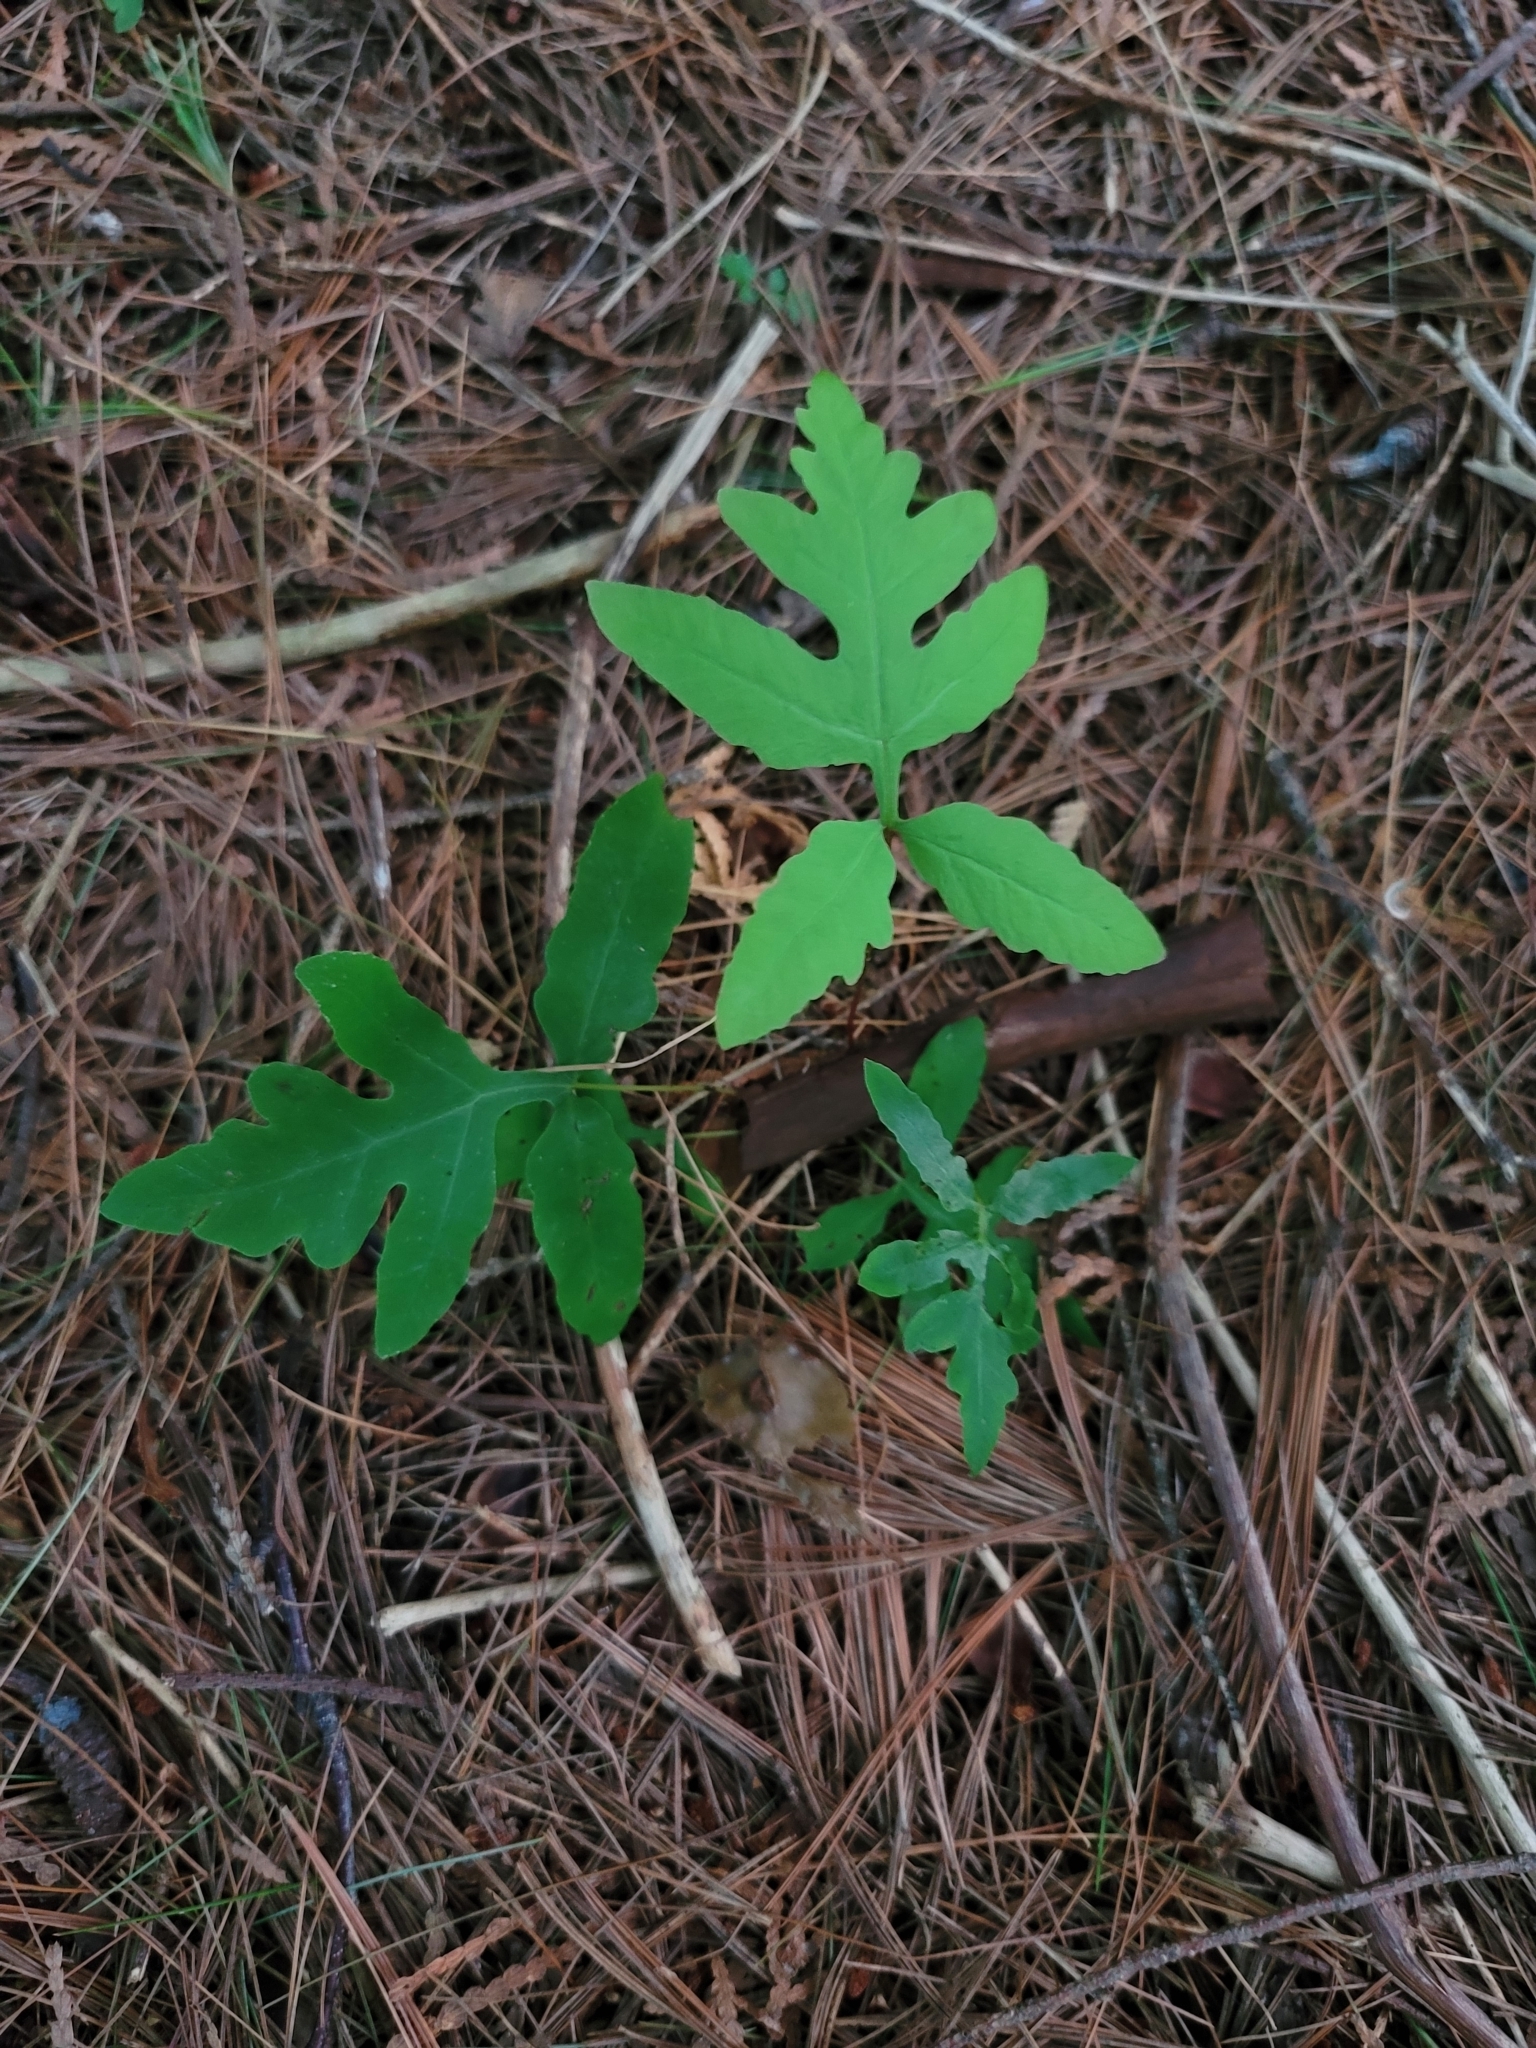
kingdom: Plantae
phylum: Tracheophyta
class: Polypodiopsida
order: Polypodiales
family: Onocleaceae
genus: Onoclea
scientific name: Onoclea sensibilis
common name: Sensitive fern
